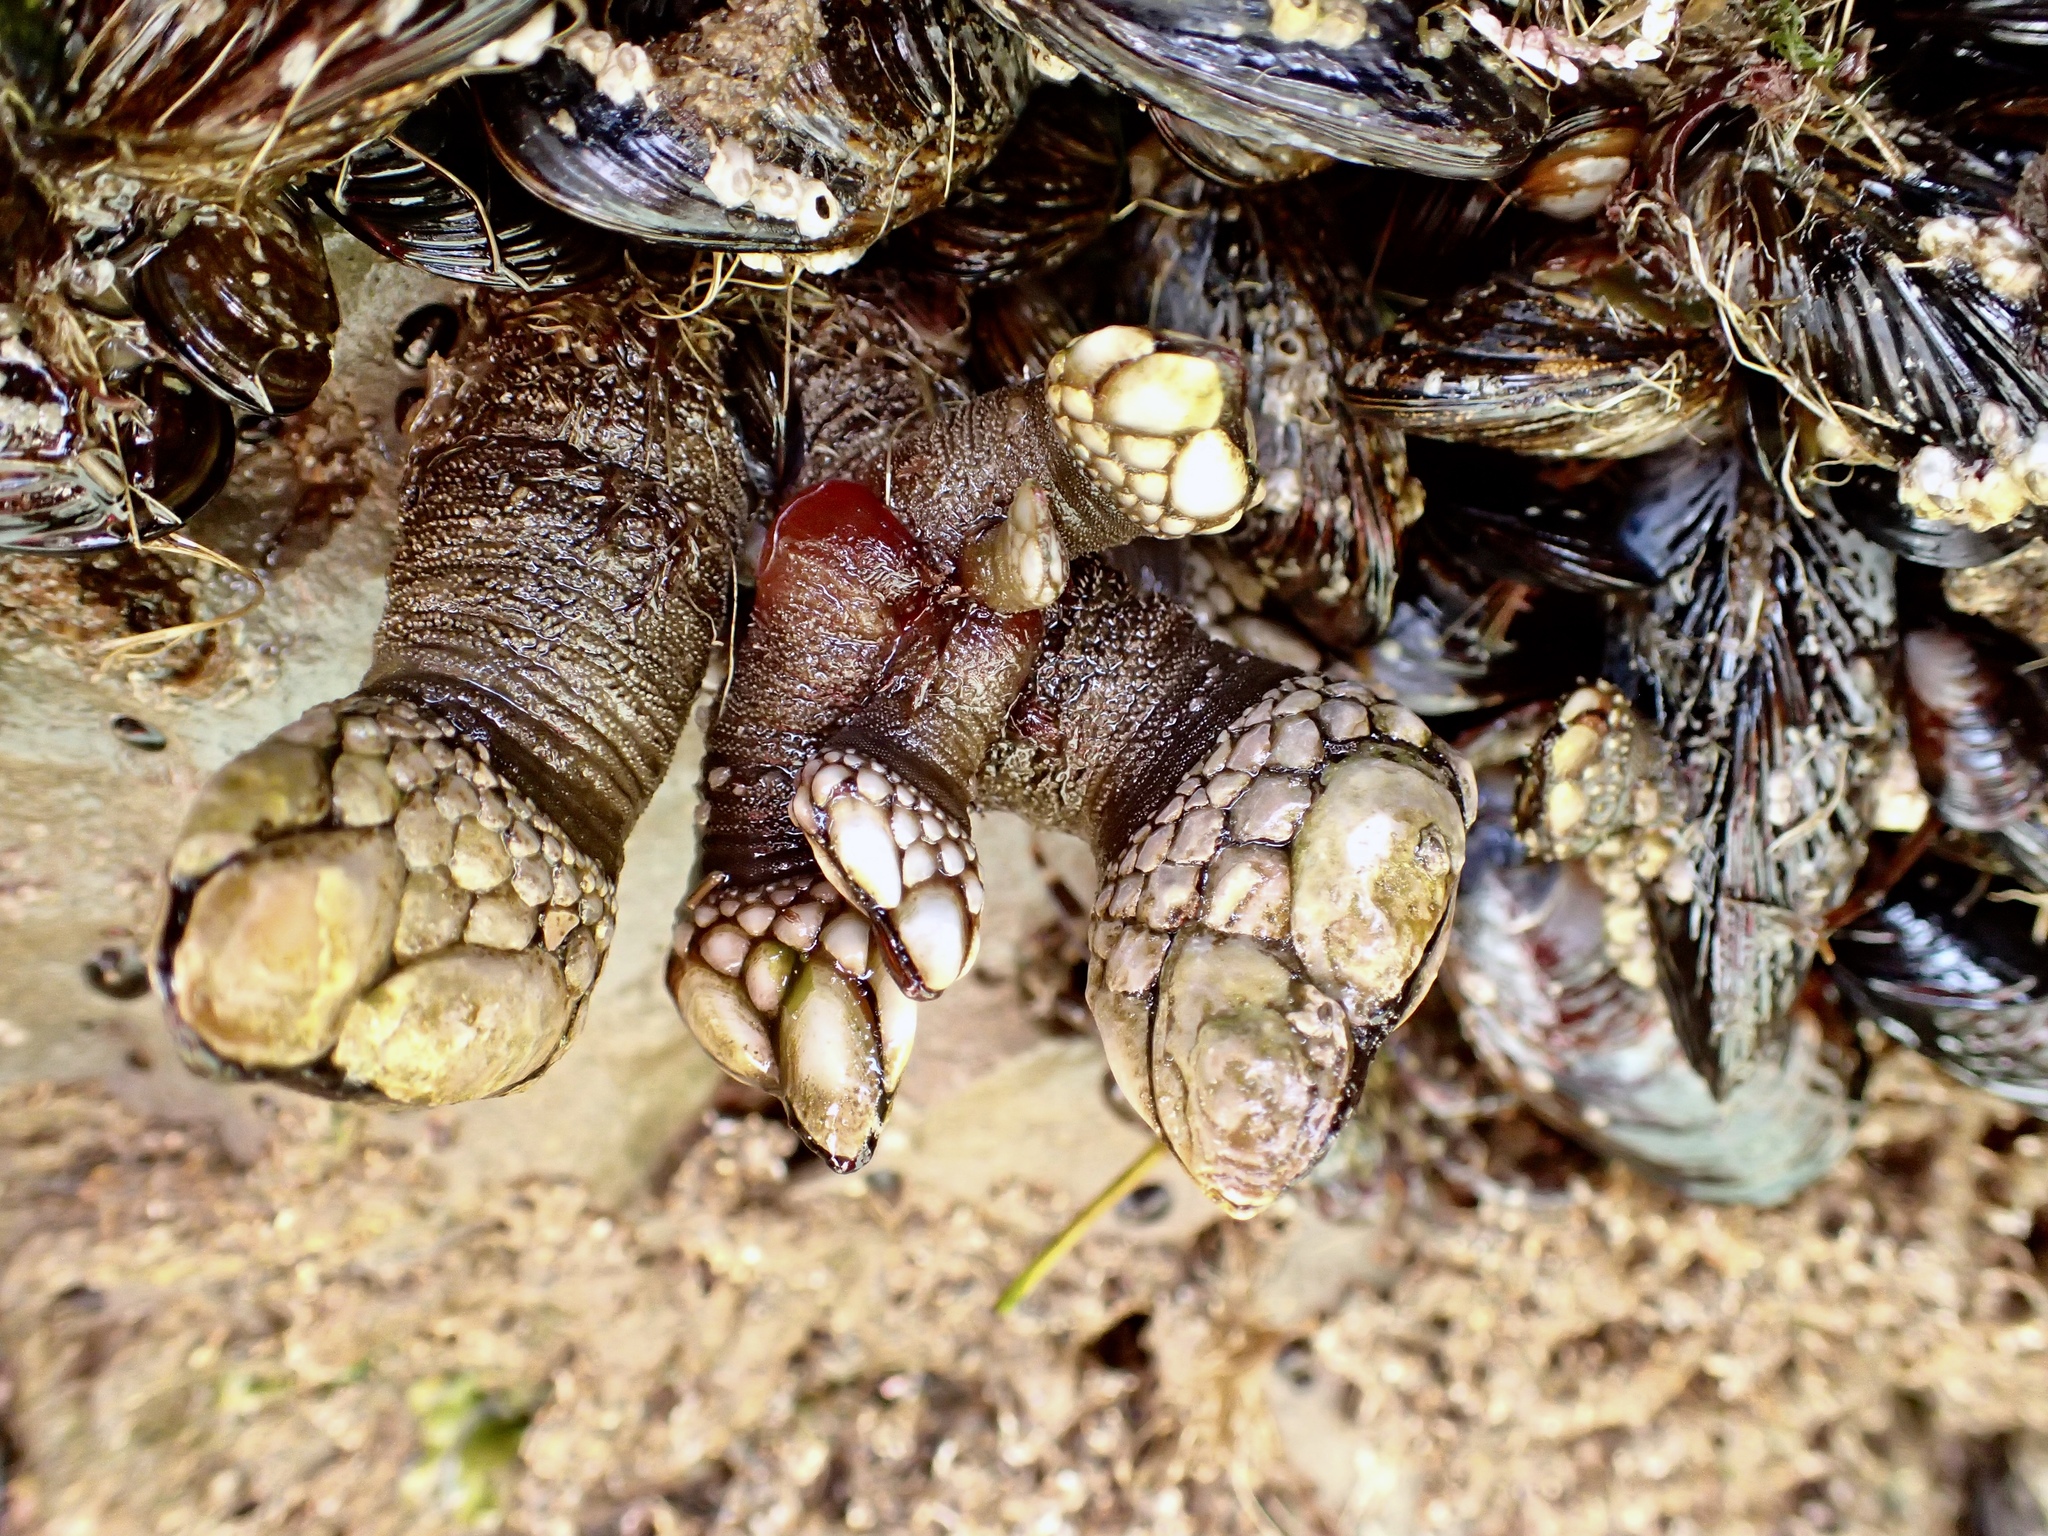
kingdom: Animalia
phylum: Arthropoda
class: Maxillopoda
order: Pedunculata
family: Pollicipedidae
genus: Pollicipes
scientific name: Pollicipes polymerus
